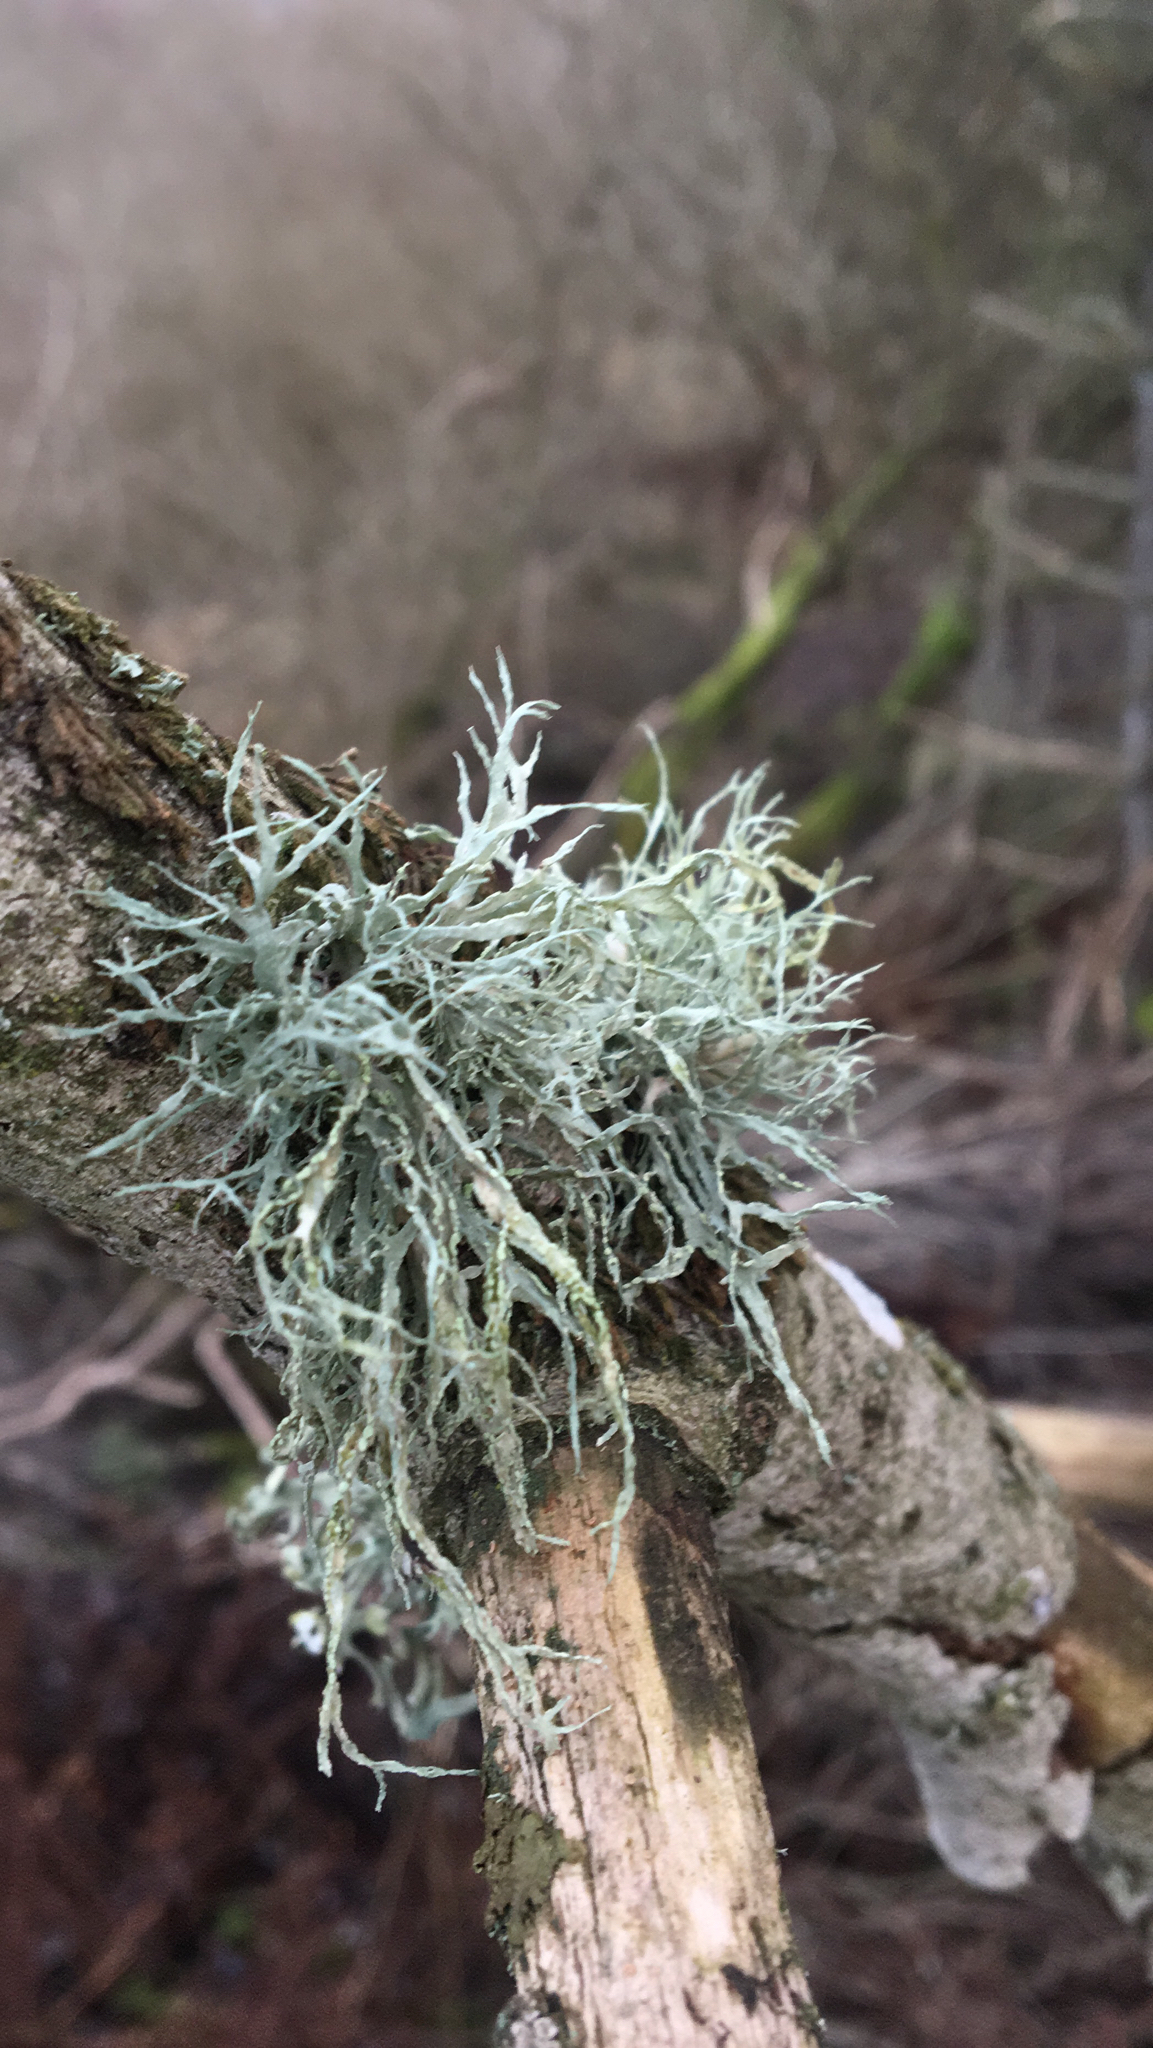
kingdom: Fungi
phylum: Ascomycota
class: Lecanoromycetes
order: Lecanorales
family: Ramalinaceae
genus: Ramalina
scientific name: Ramalina farinacea
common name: Farinose cartilage lichen
